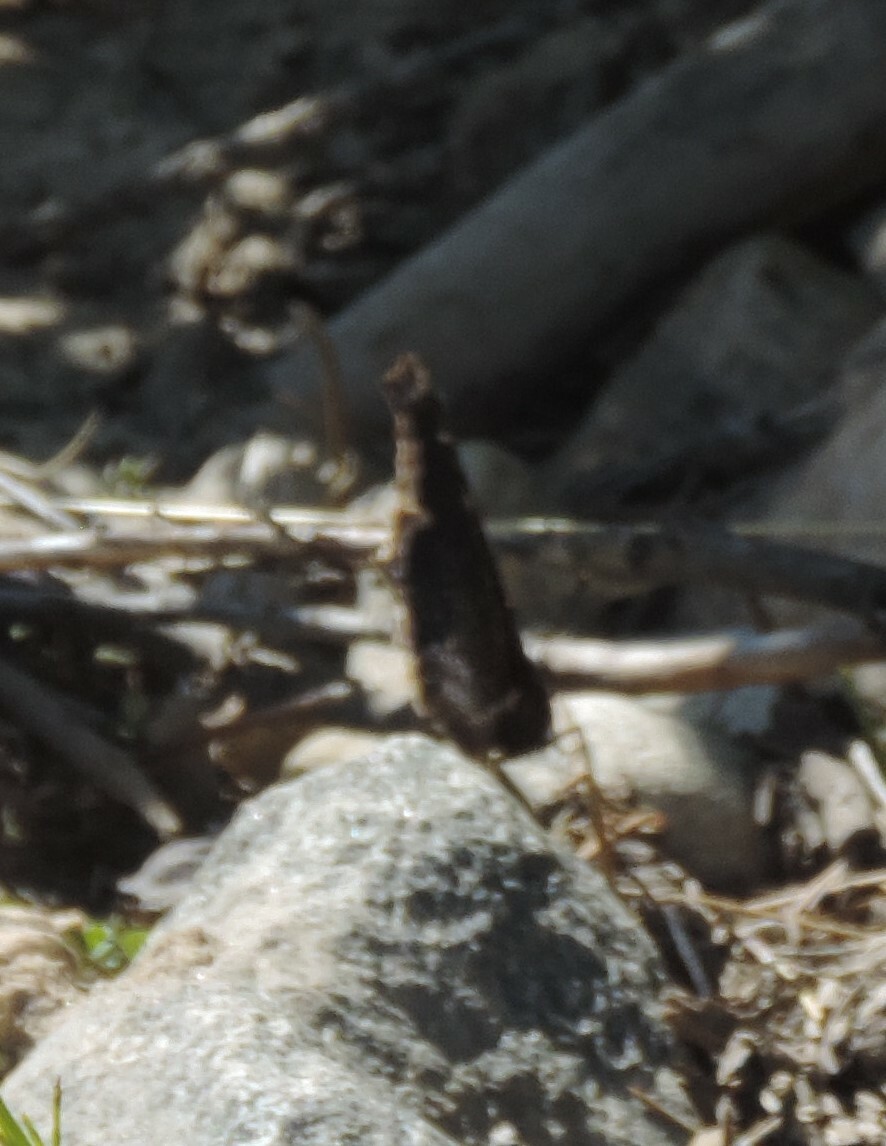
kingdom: Animalia
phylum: Arthropoda
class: Insecta
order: Lepidoptera
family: Nymphalidae
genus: Nymphalis
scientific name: Nymphalis antiopa
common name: Camberwell beauty
